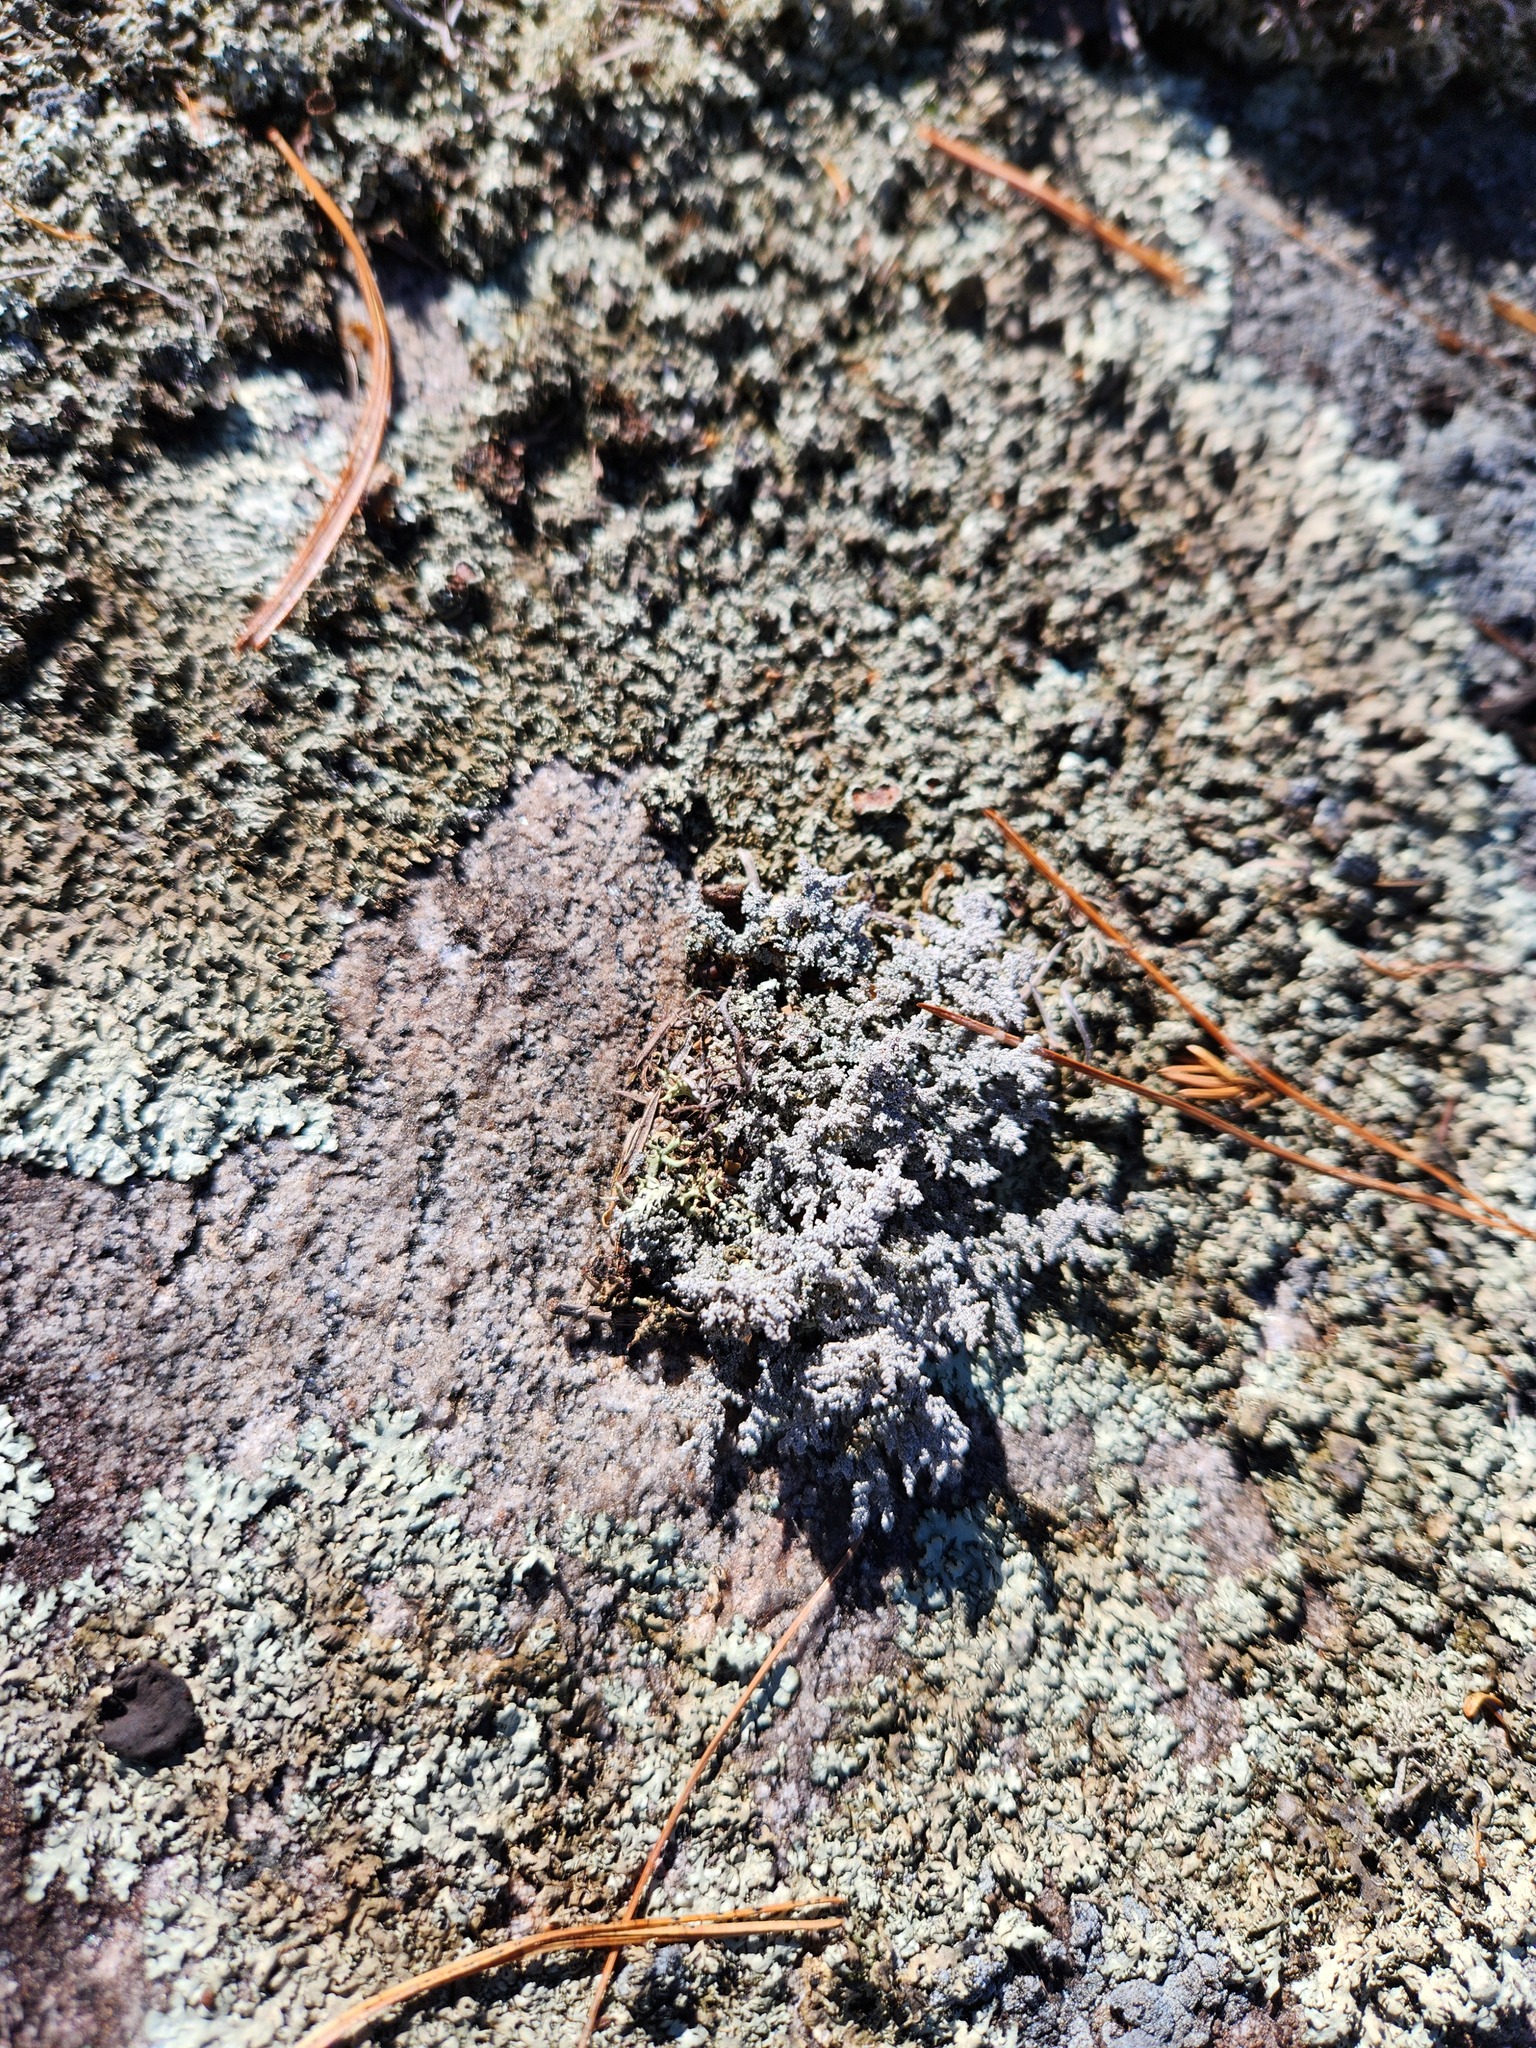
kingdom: Fungi
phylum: Ascomycota
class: Lecanoromycetes
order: Lecanorales
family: Stereocaulaceae
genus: Stereocaulon
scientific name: Stereocaulon saxatile
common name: Rock foam
